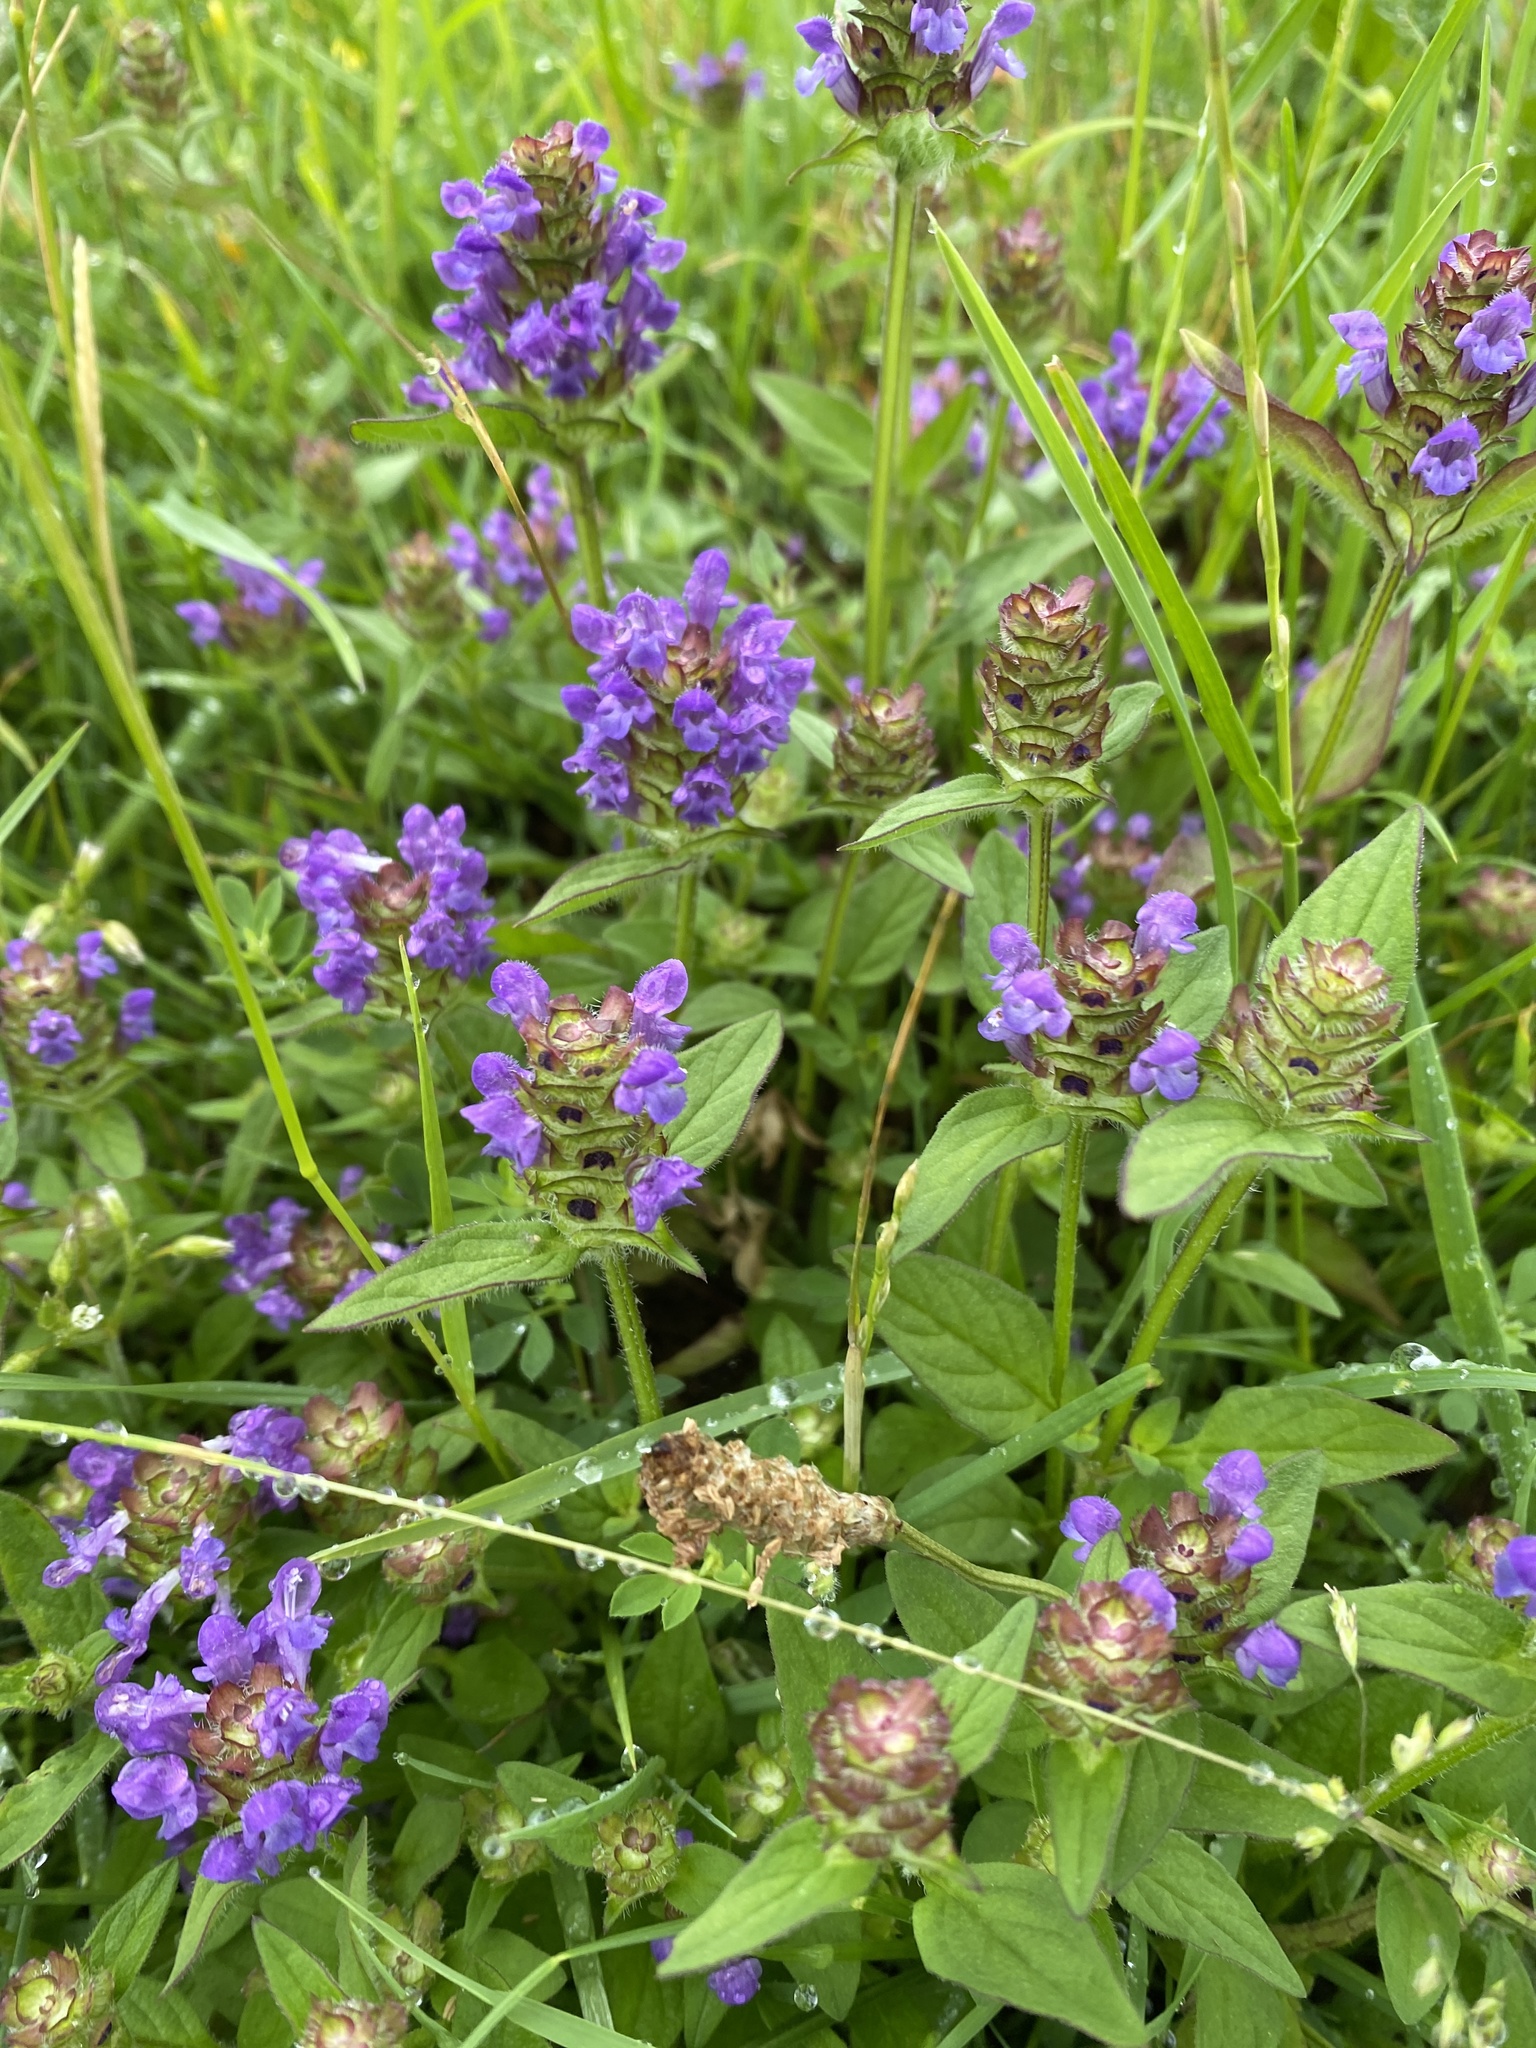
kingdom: Plantae
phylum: Tracheophyta
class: Magnoliopsida
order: Lamiales
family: Lamiaceae
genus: Prunella
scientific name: Prunella vulgaris
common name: Heal-all
